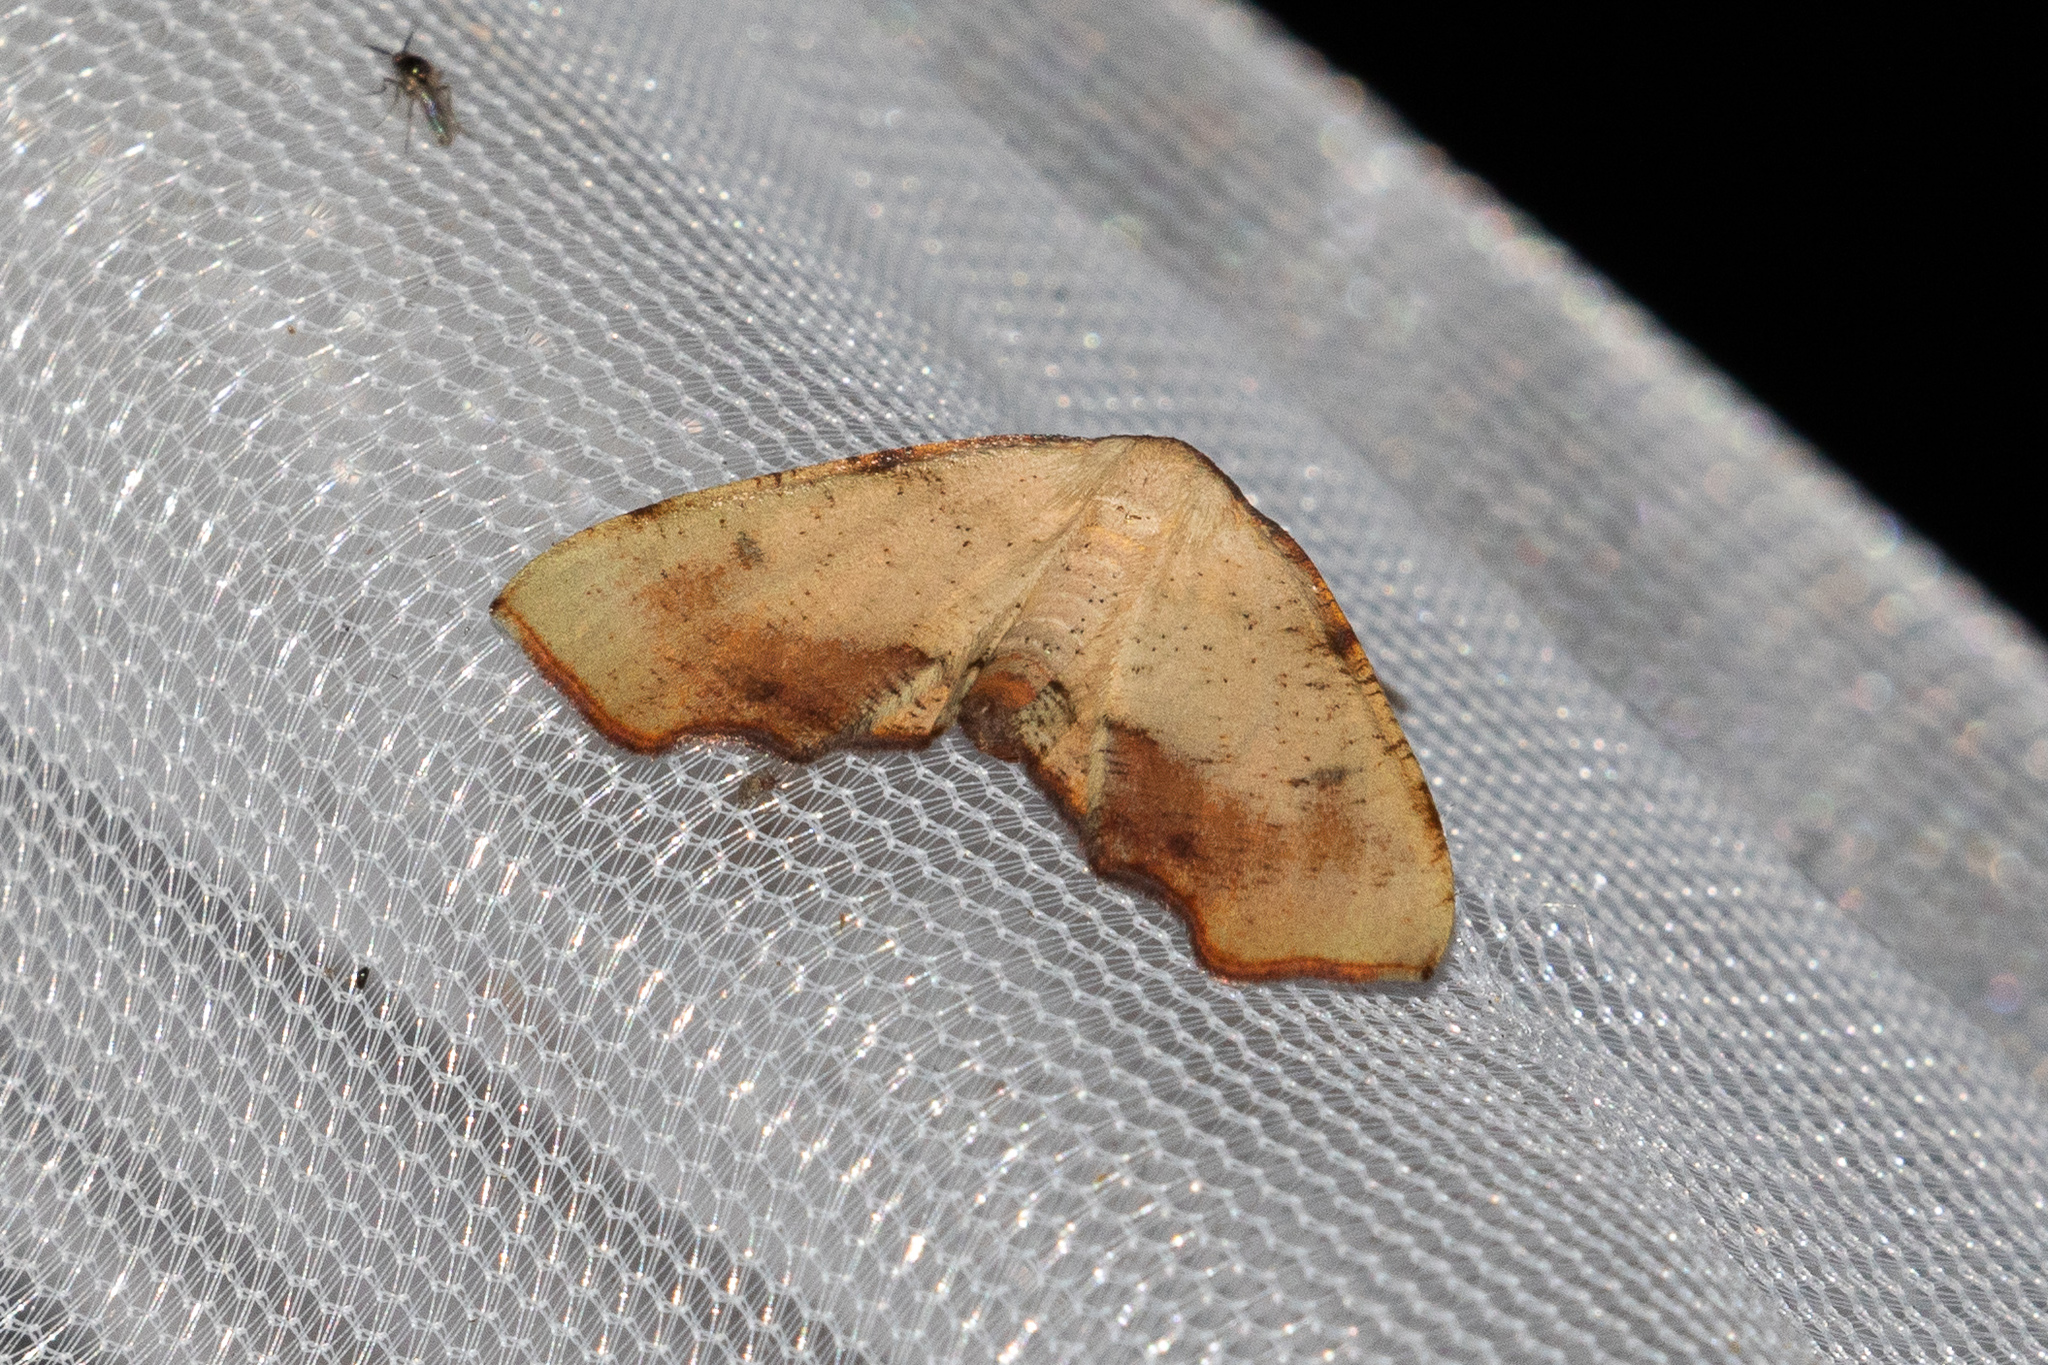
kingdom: Animalia
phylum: Arthropoda
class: Insecta
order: Lepidoptera
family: Geometridae
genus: Plagodis
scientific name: Plagodis fervidaria
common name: Fervid plagodis
